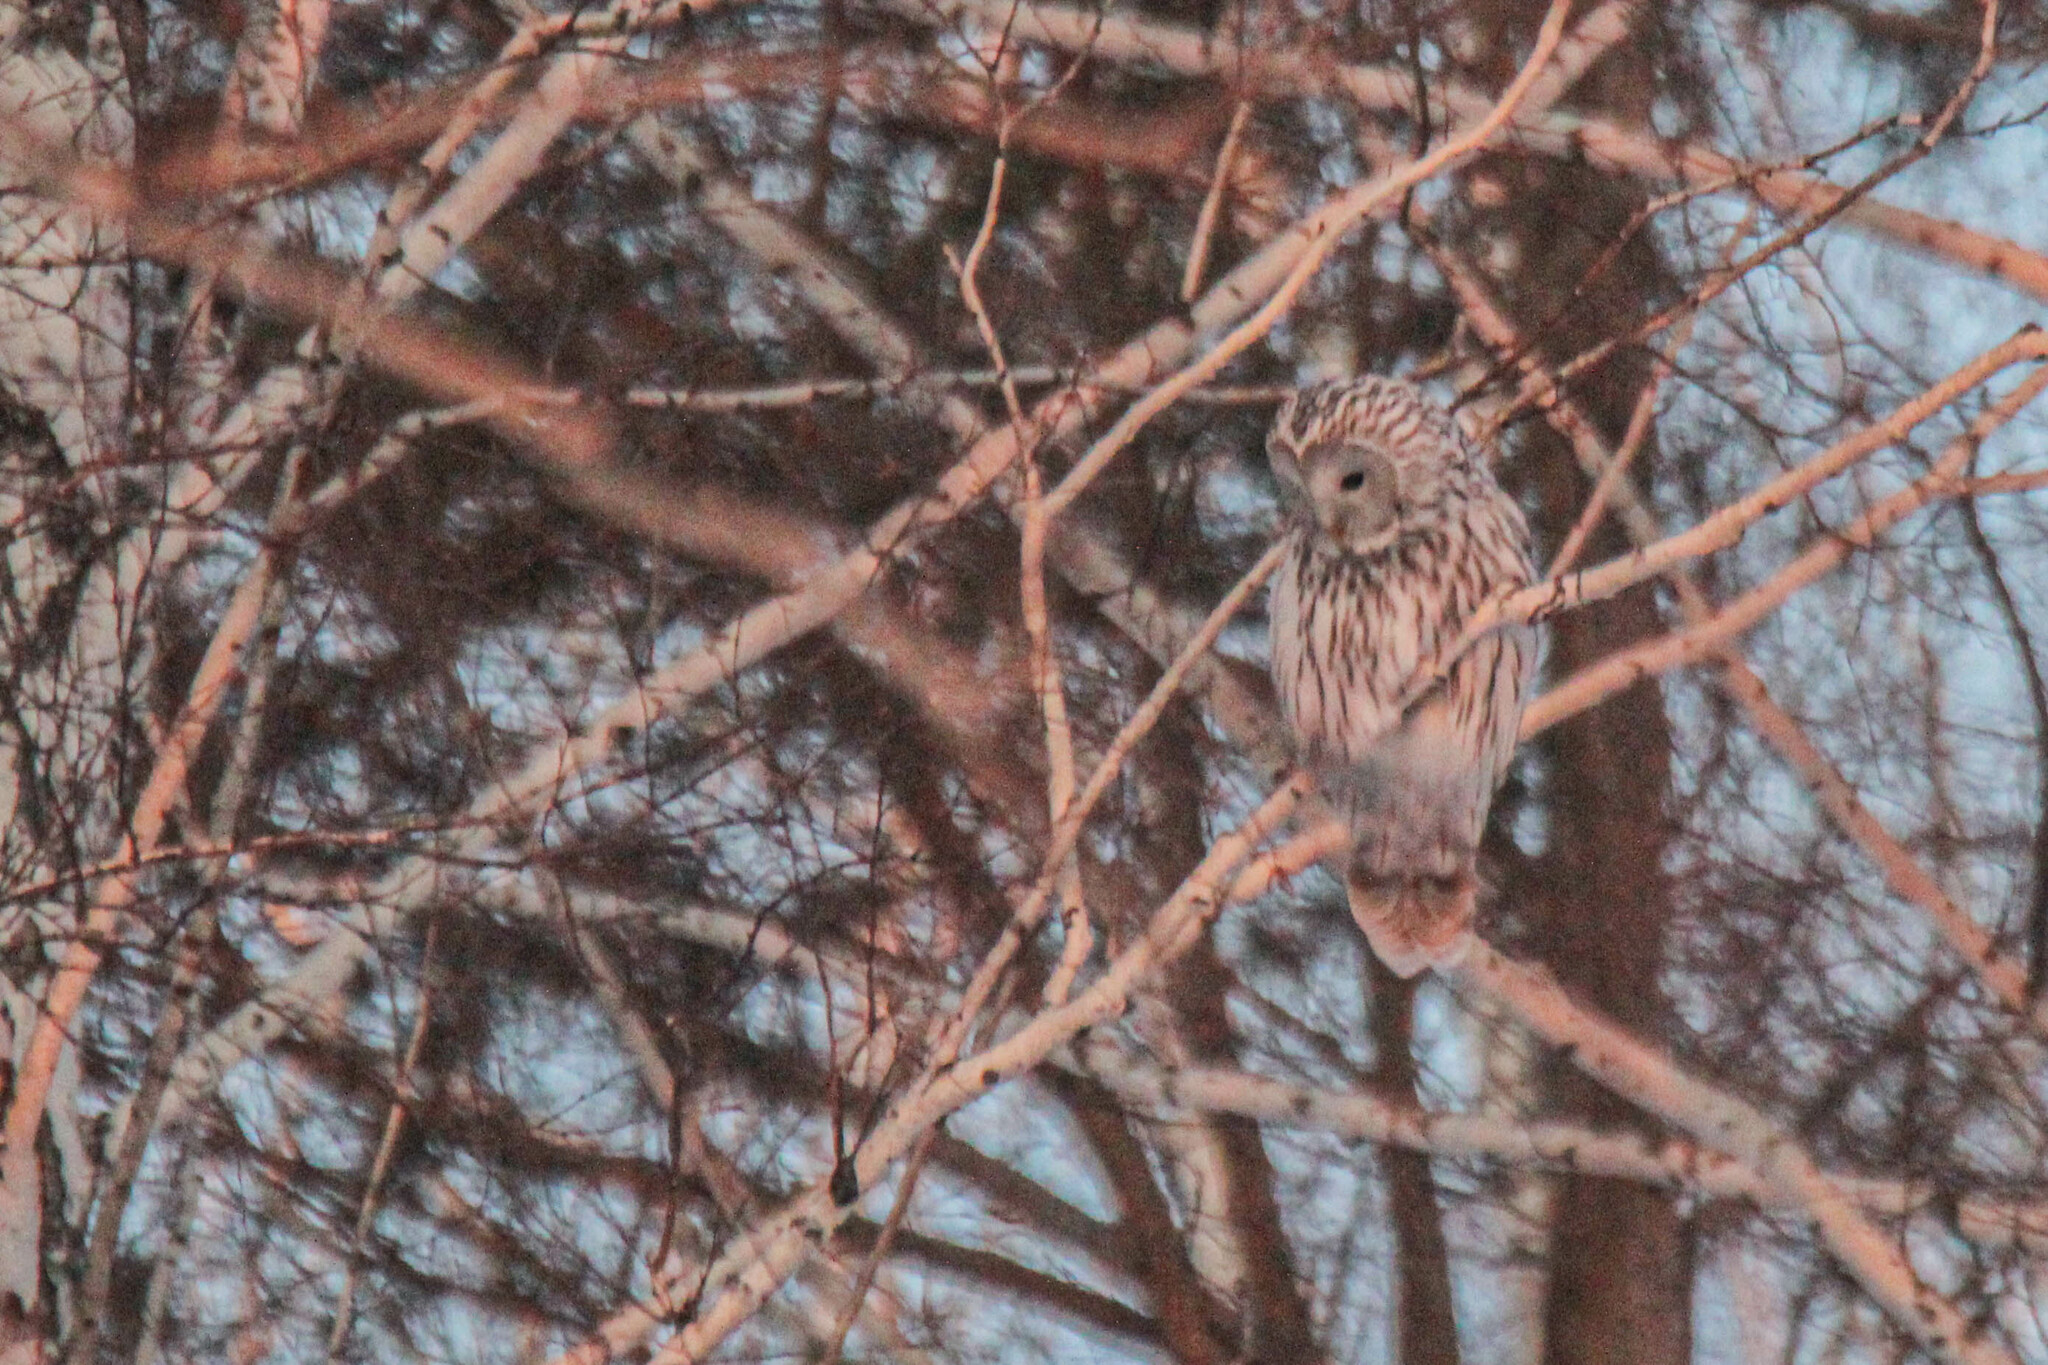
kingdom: Animalia
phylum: Chordata
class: Aves
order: Strigiformes
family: Strigidae
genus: Strix
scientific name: Strix uralensis
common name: Ural owl
